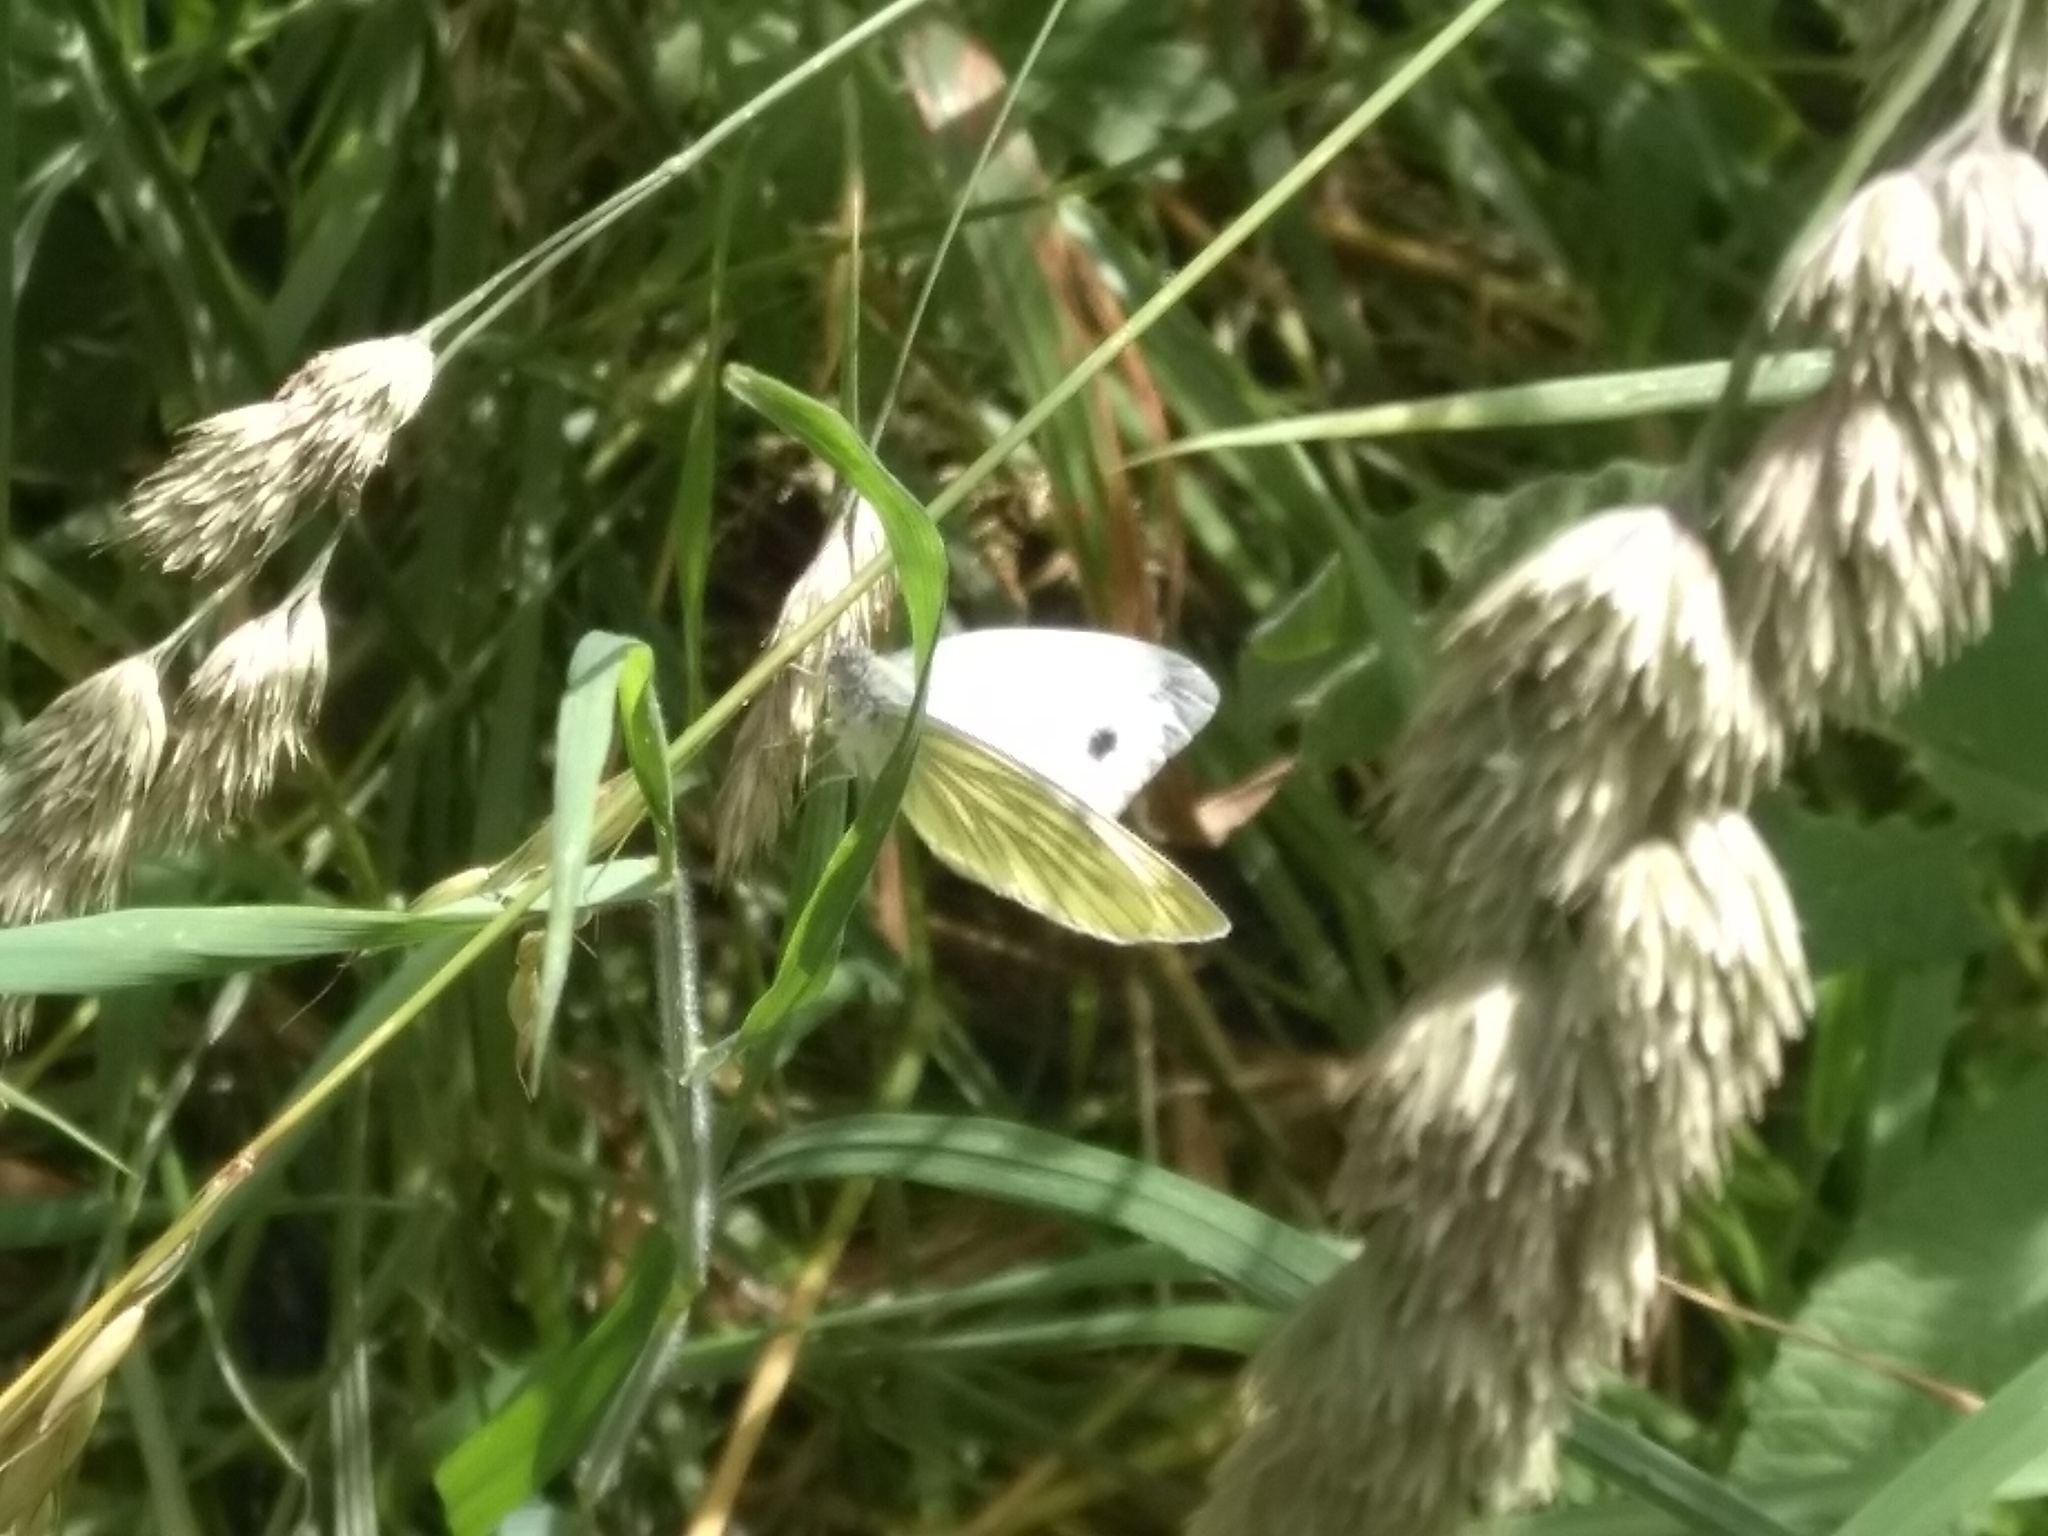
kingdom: Animalia
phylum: Arthropoda
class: Insecta
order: Lepidoptera
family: Pieridae
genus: Pieris
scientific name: Pieris napi
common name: Green-veined white
